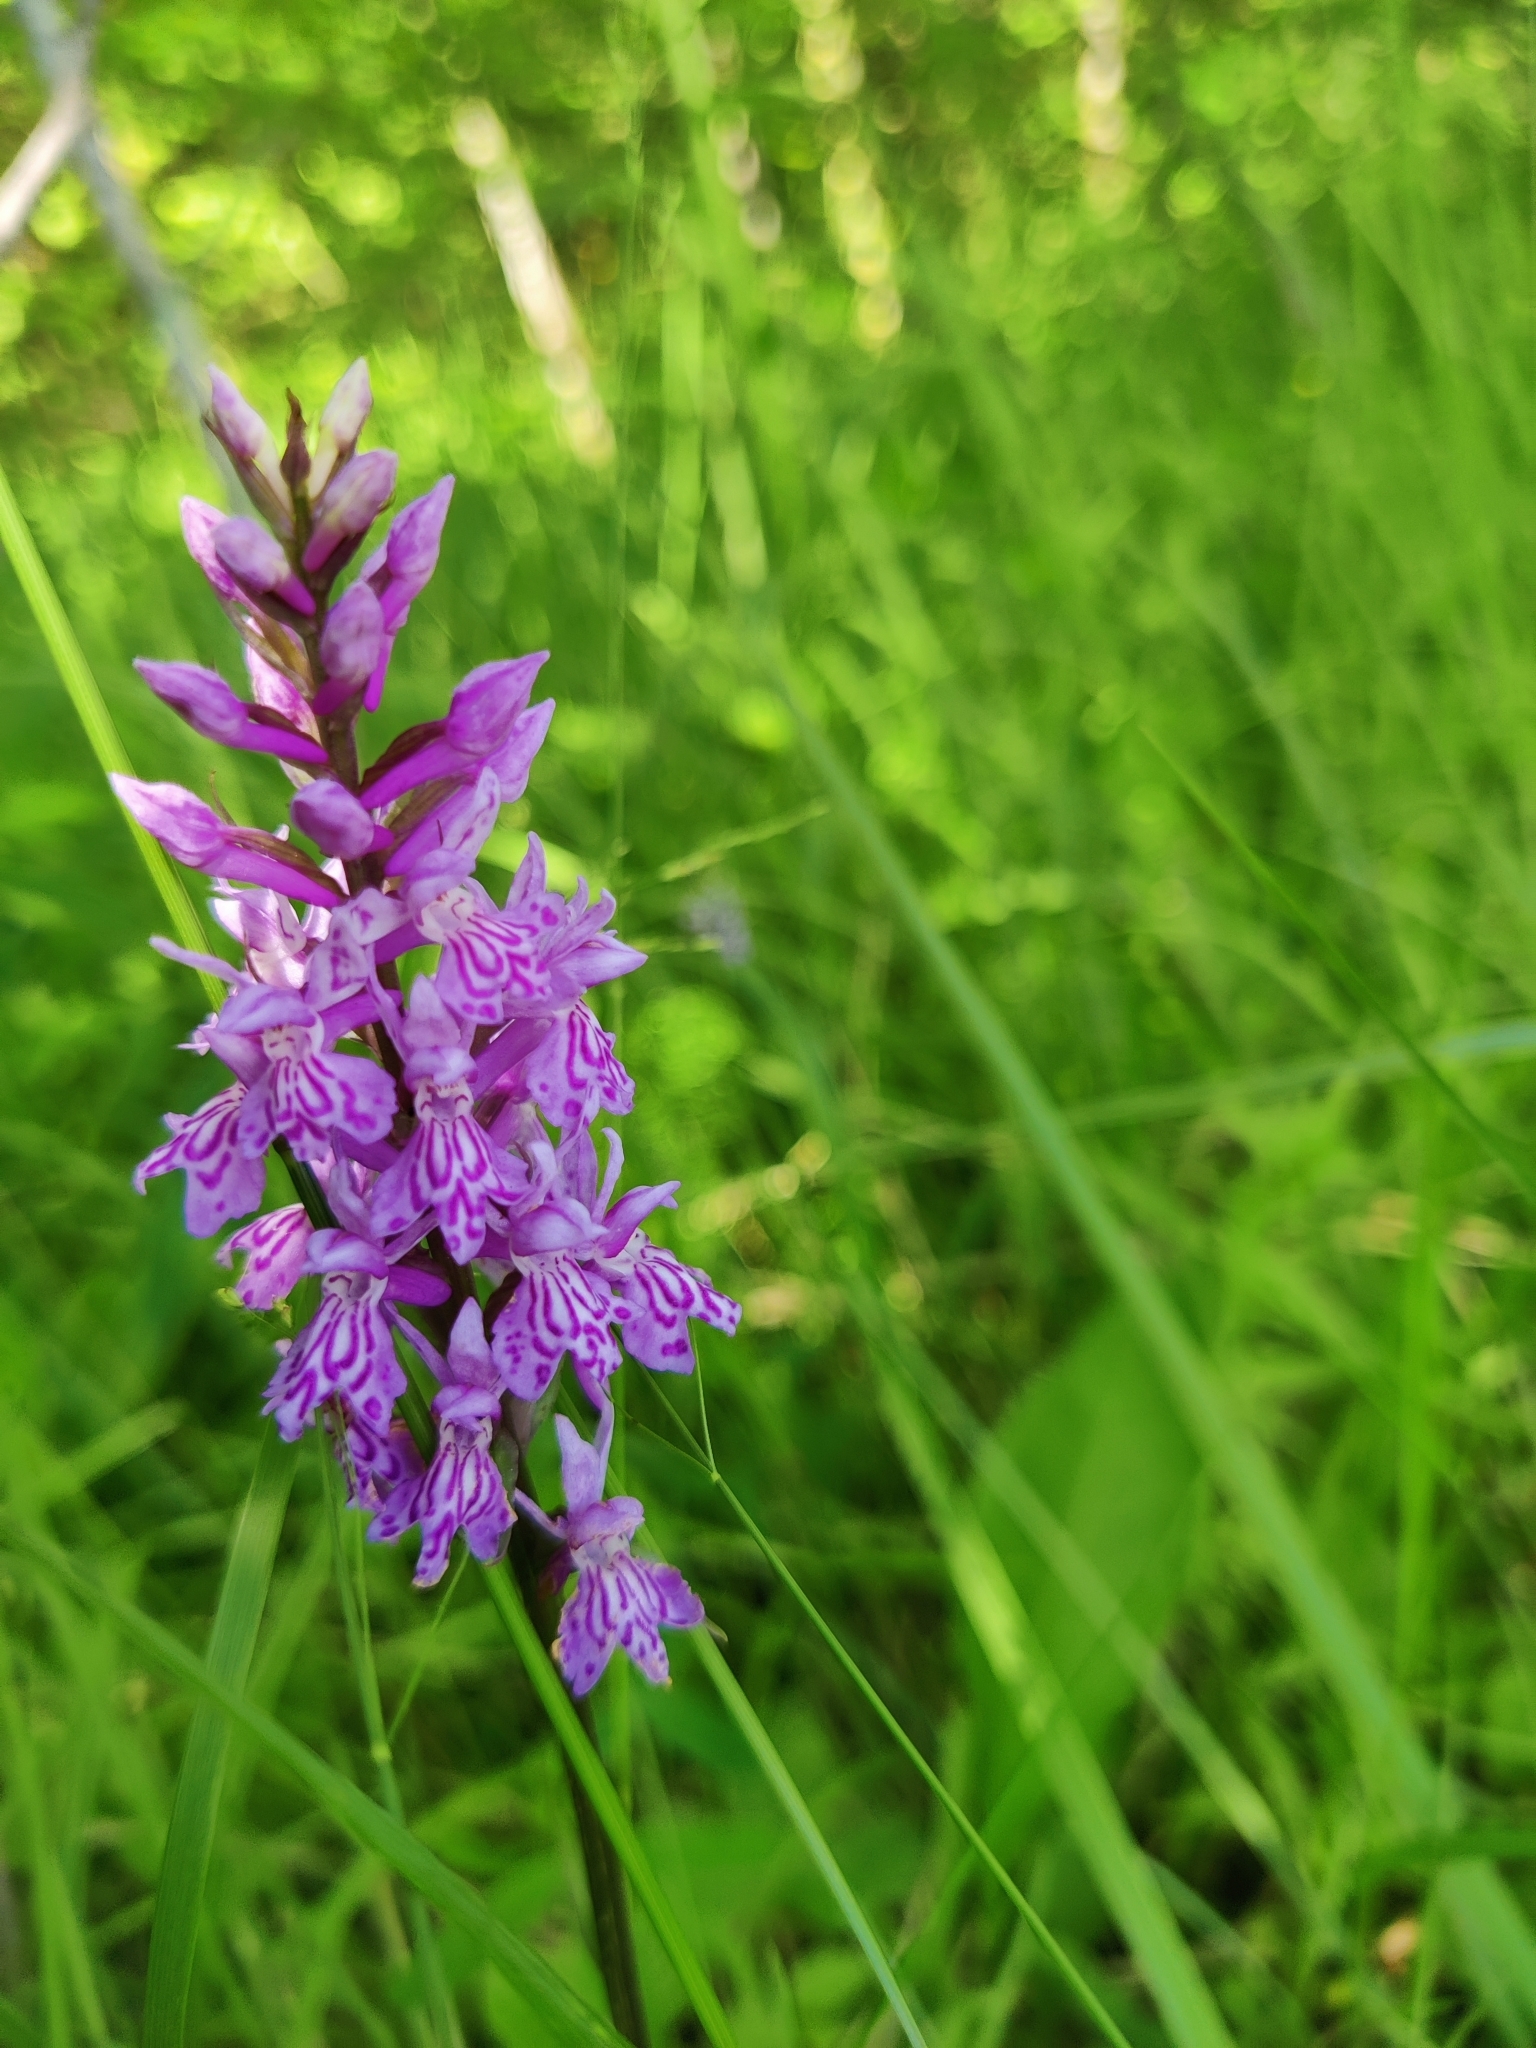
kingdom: Plantae
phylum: Tracheophyta
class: Liliopsida
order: Asparagales
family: Orchidaceae
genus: Dactylorhiza
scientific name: Dactylorhiza maculata
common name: Heath spotted-orchid
